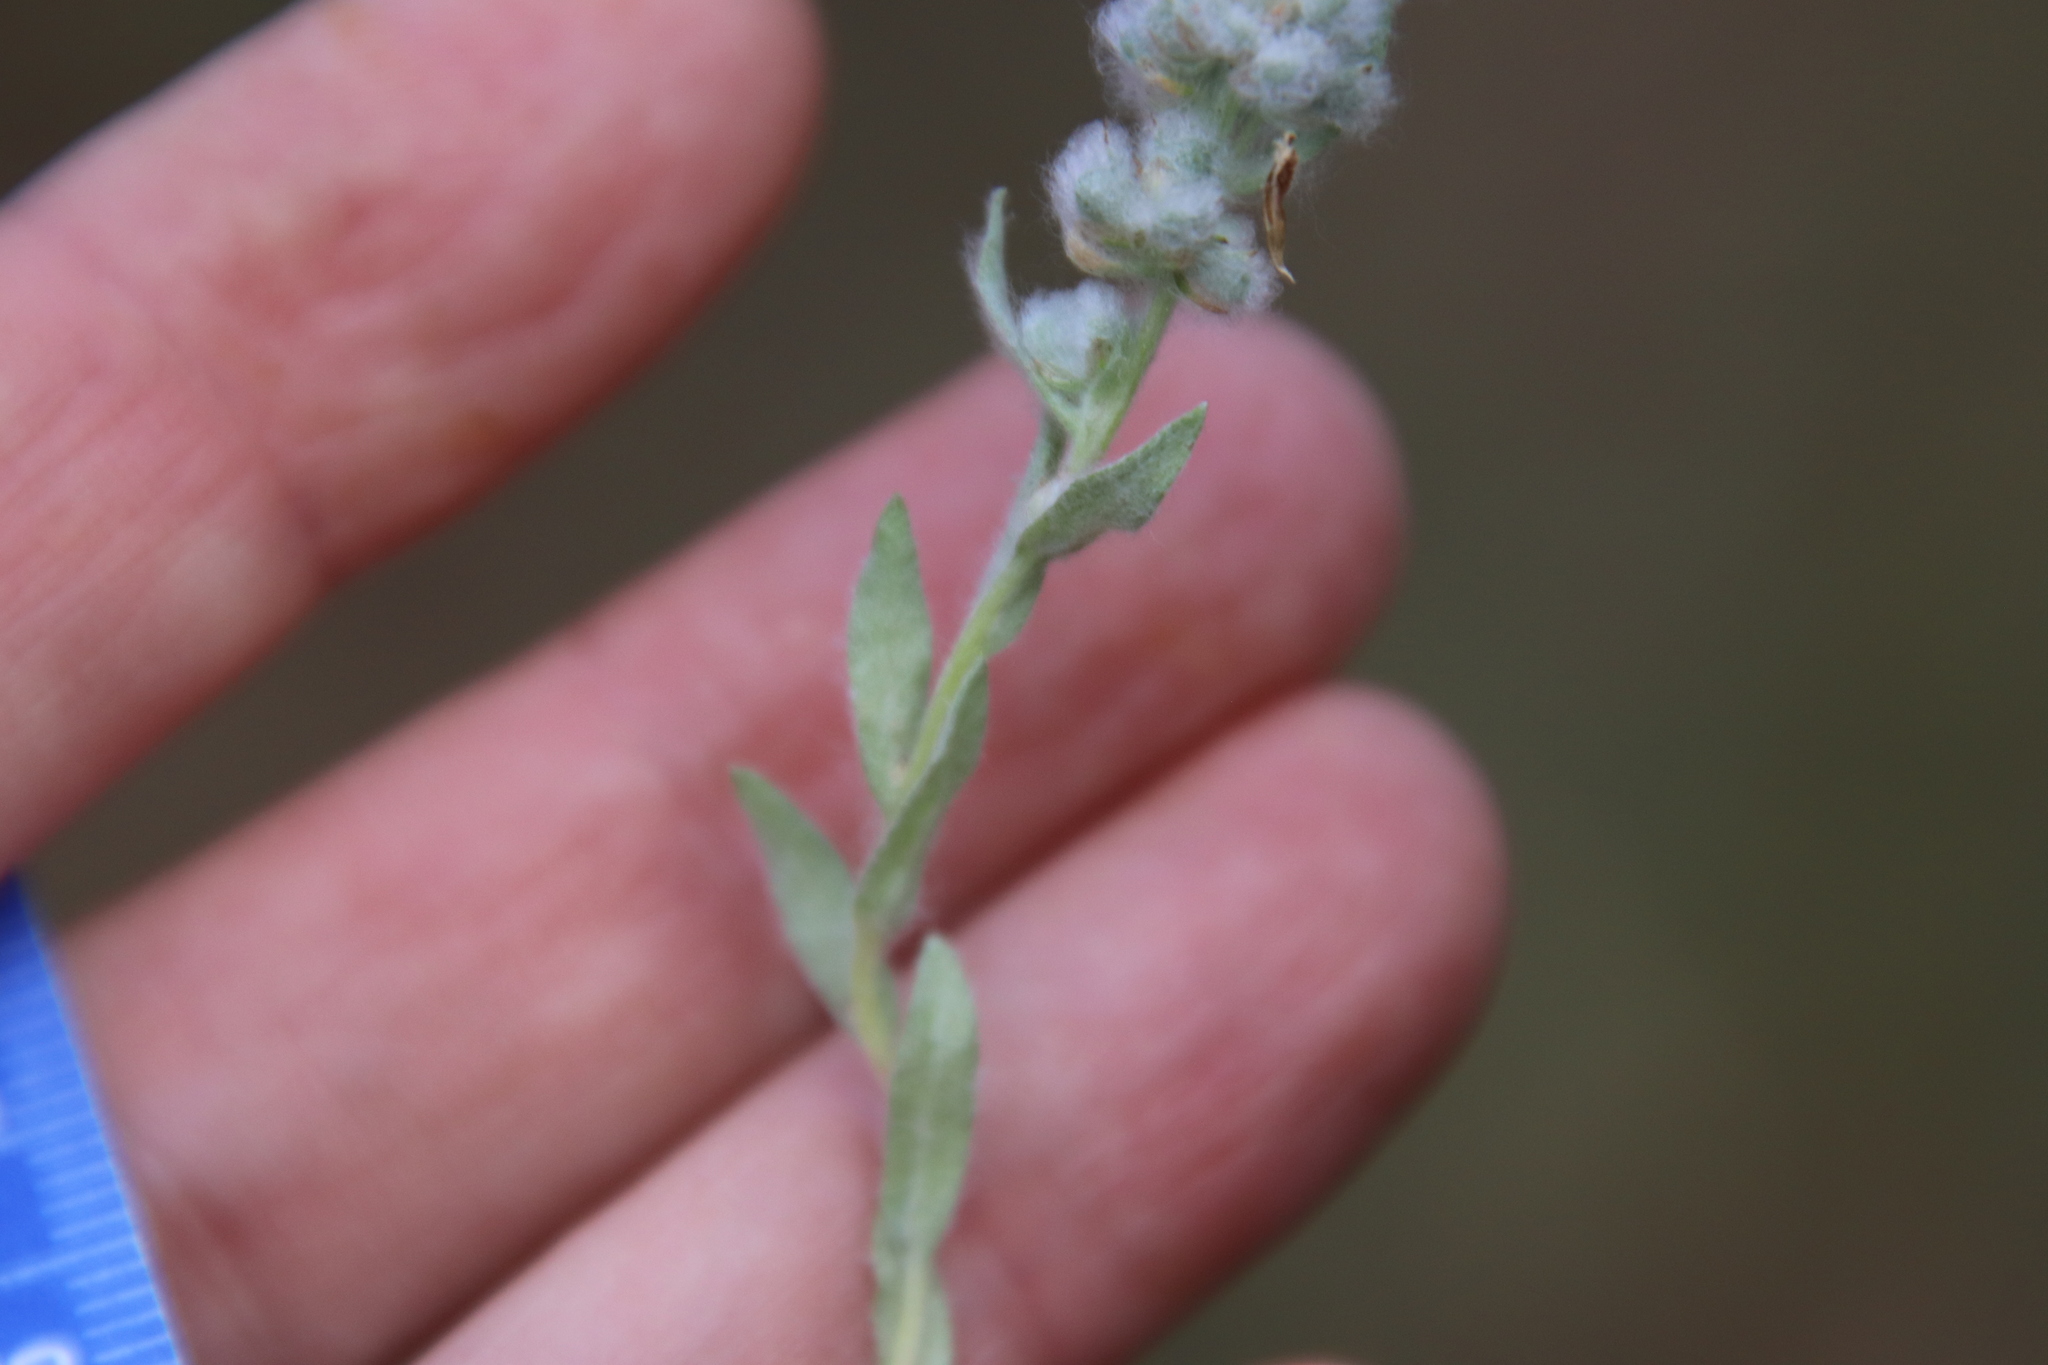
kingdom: Plantae
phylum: Tracheophyta
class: Magnoliopsida
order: Asterales
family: Asteraceae
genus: Bombycilaena
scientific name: Bombycilaena californica
